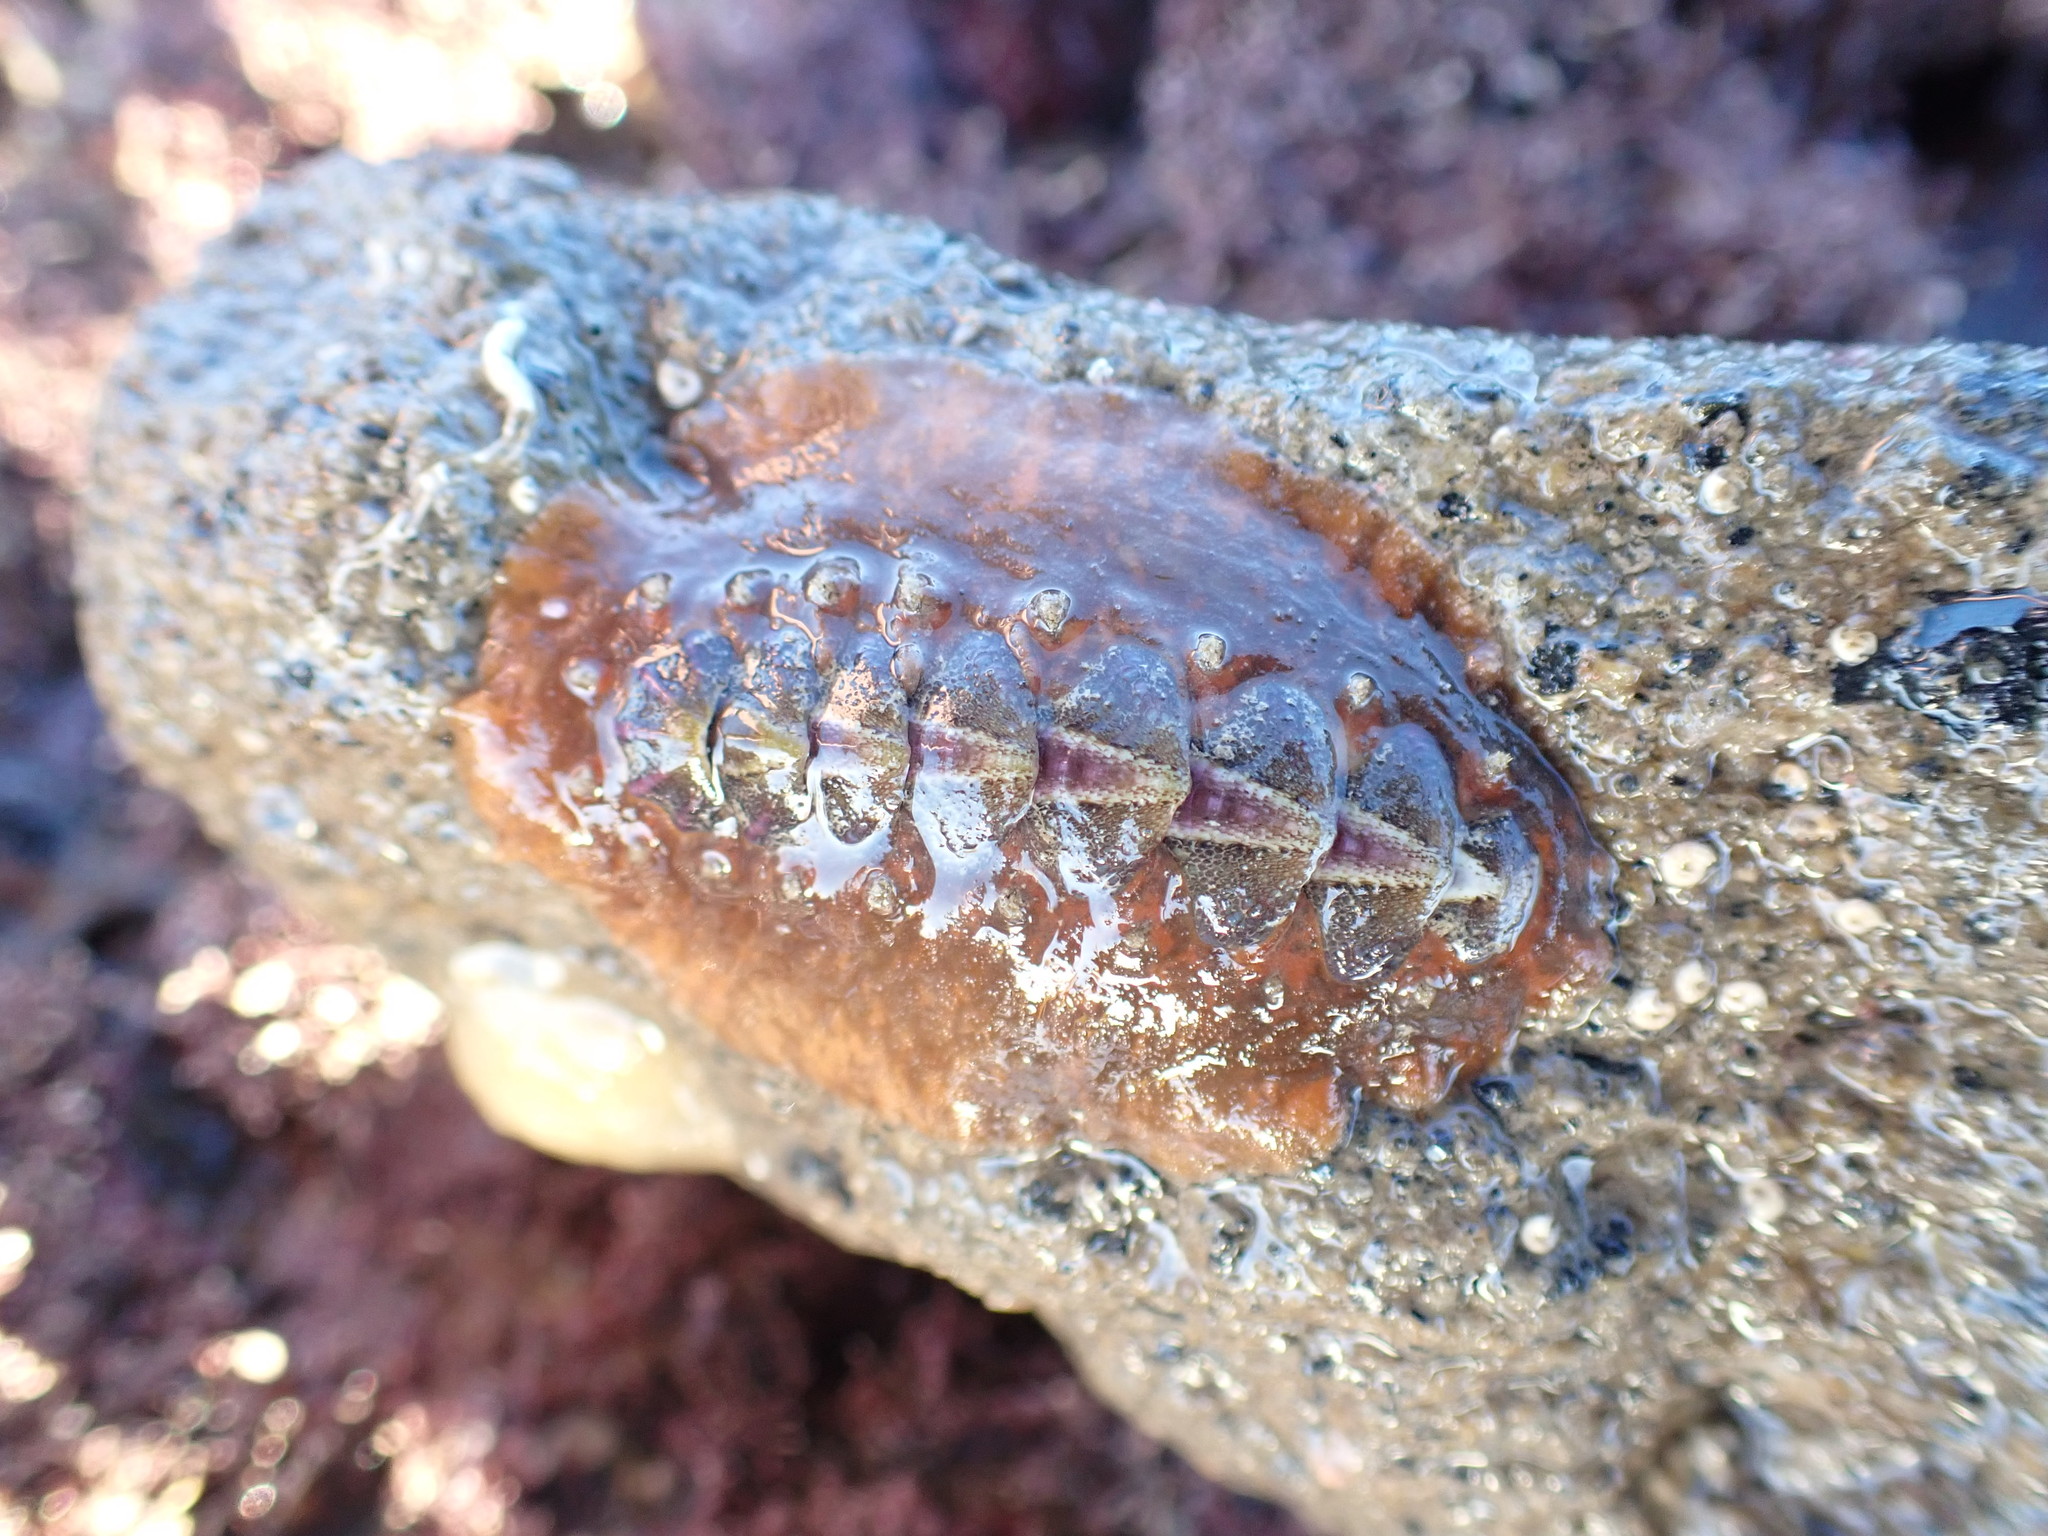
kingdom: Animalia
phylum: Mollusca
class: Polyplacophora
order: Chitonida
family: Acanthochitonidae
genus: Notoplax
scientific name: Notoplax violacea
